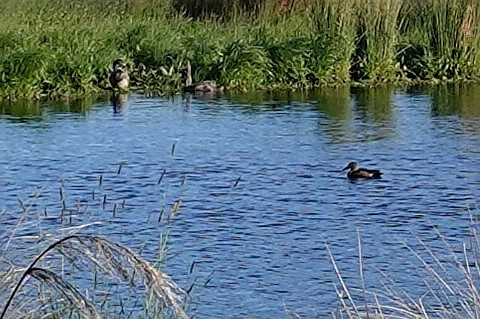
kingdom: Animalia
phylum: Chordata
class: Aves
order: Anseriformes
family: Anatidae
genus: Spatula
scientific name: Spatula rhynchotis
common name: Australian shoveler
